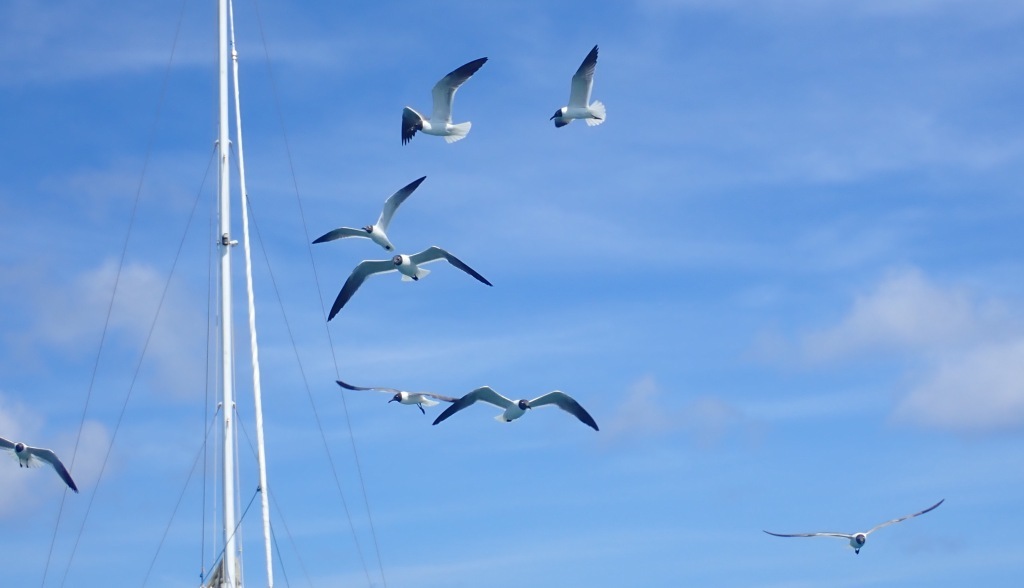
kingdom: Animalia
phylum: Chordata
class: Aves
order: Charadriiformes
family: Laridae
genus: Leucophaeus
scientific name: Leucophaeus atricilla
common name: Laughing gull
